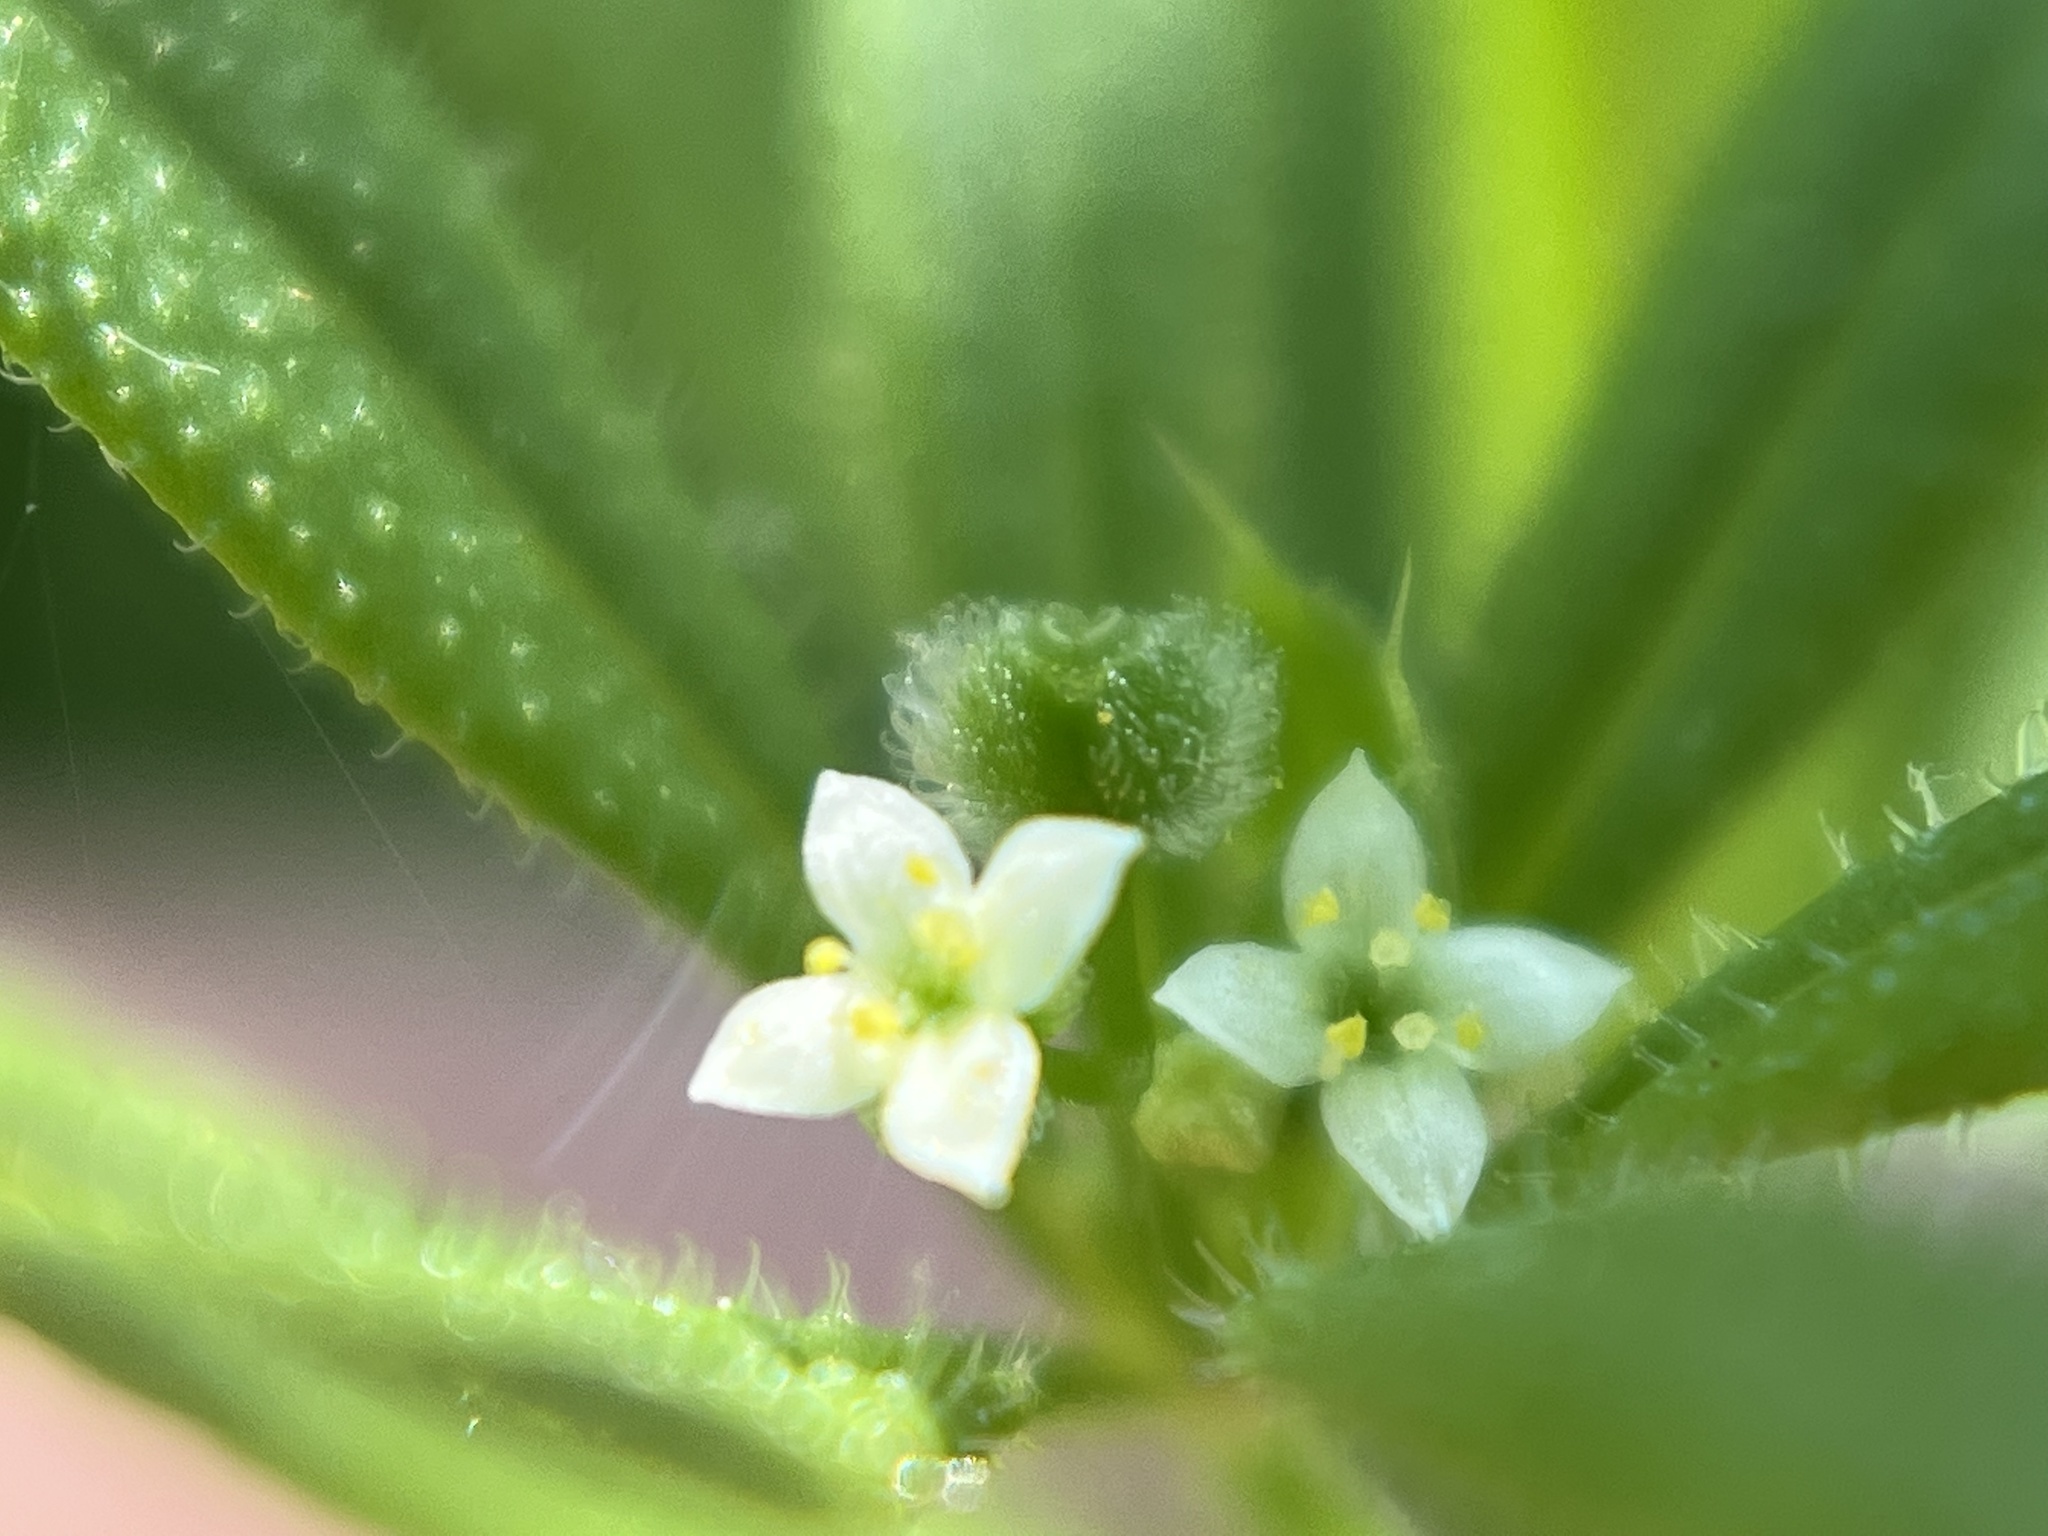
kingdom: Plantae
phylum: Tracheophyta
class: Magnoliopsida
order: Gentianales
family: Rubiaceae
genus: Galium
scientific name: Galium aparine
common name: Cleavers
